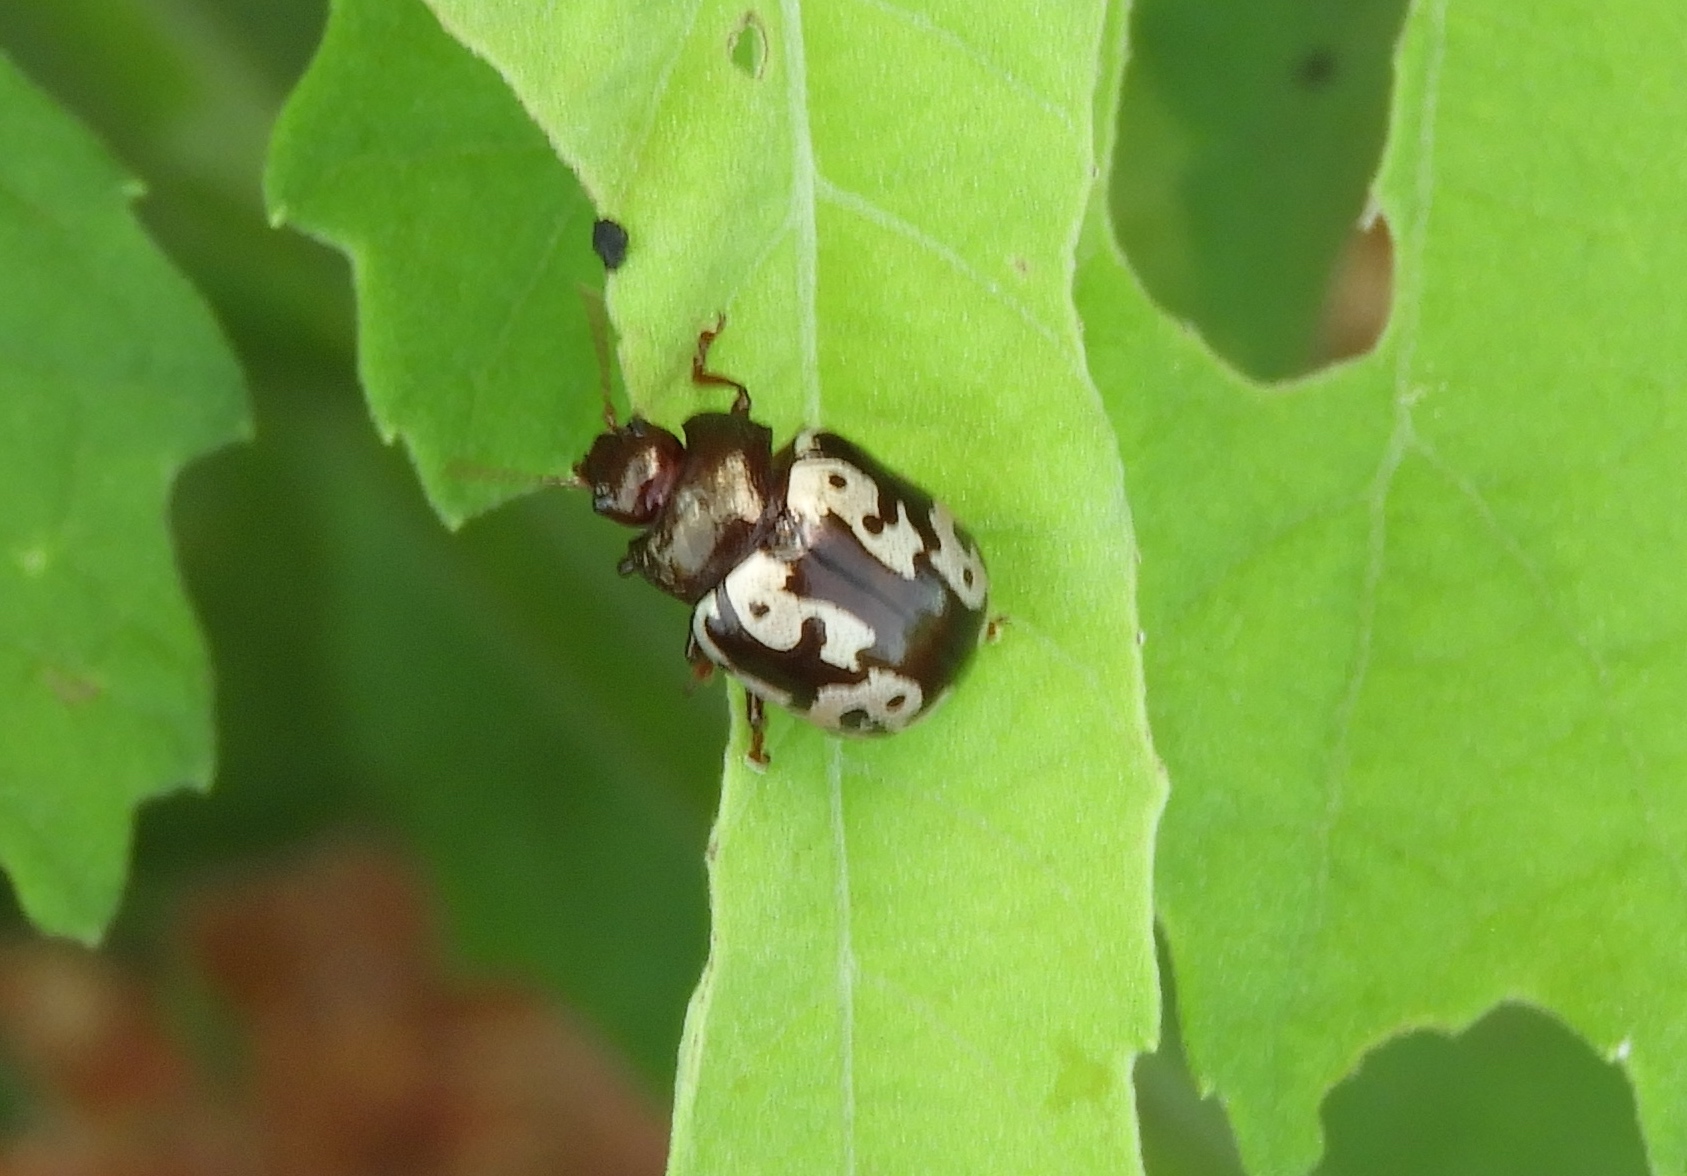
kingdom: Animalia
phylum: Arthropoda
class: Insecta
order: Coleoptera
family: Chrysomelidae
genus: Calligrapha
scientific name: Calligrapha intermedia
